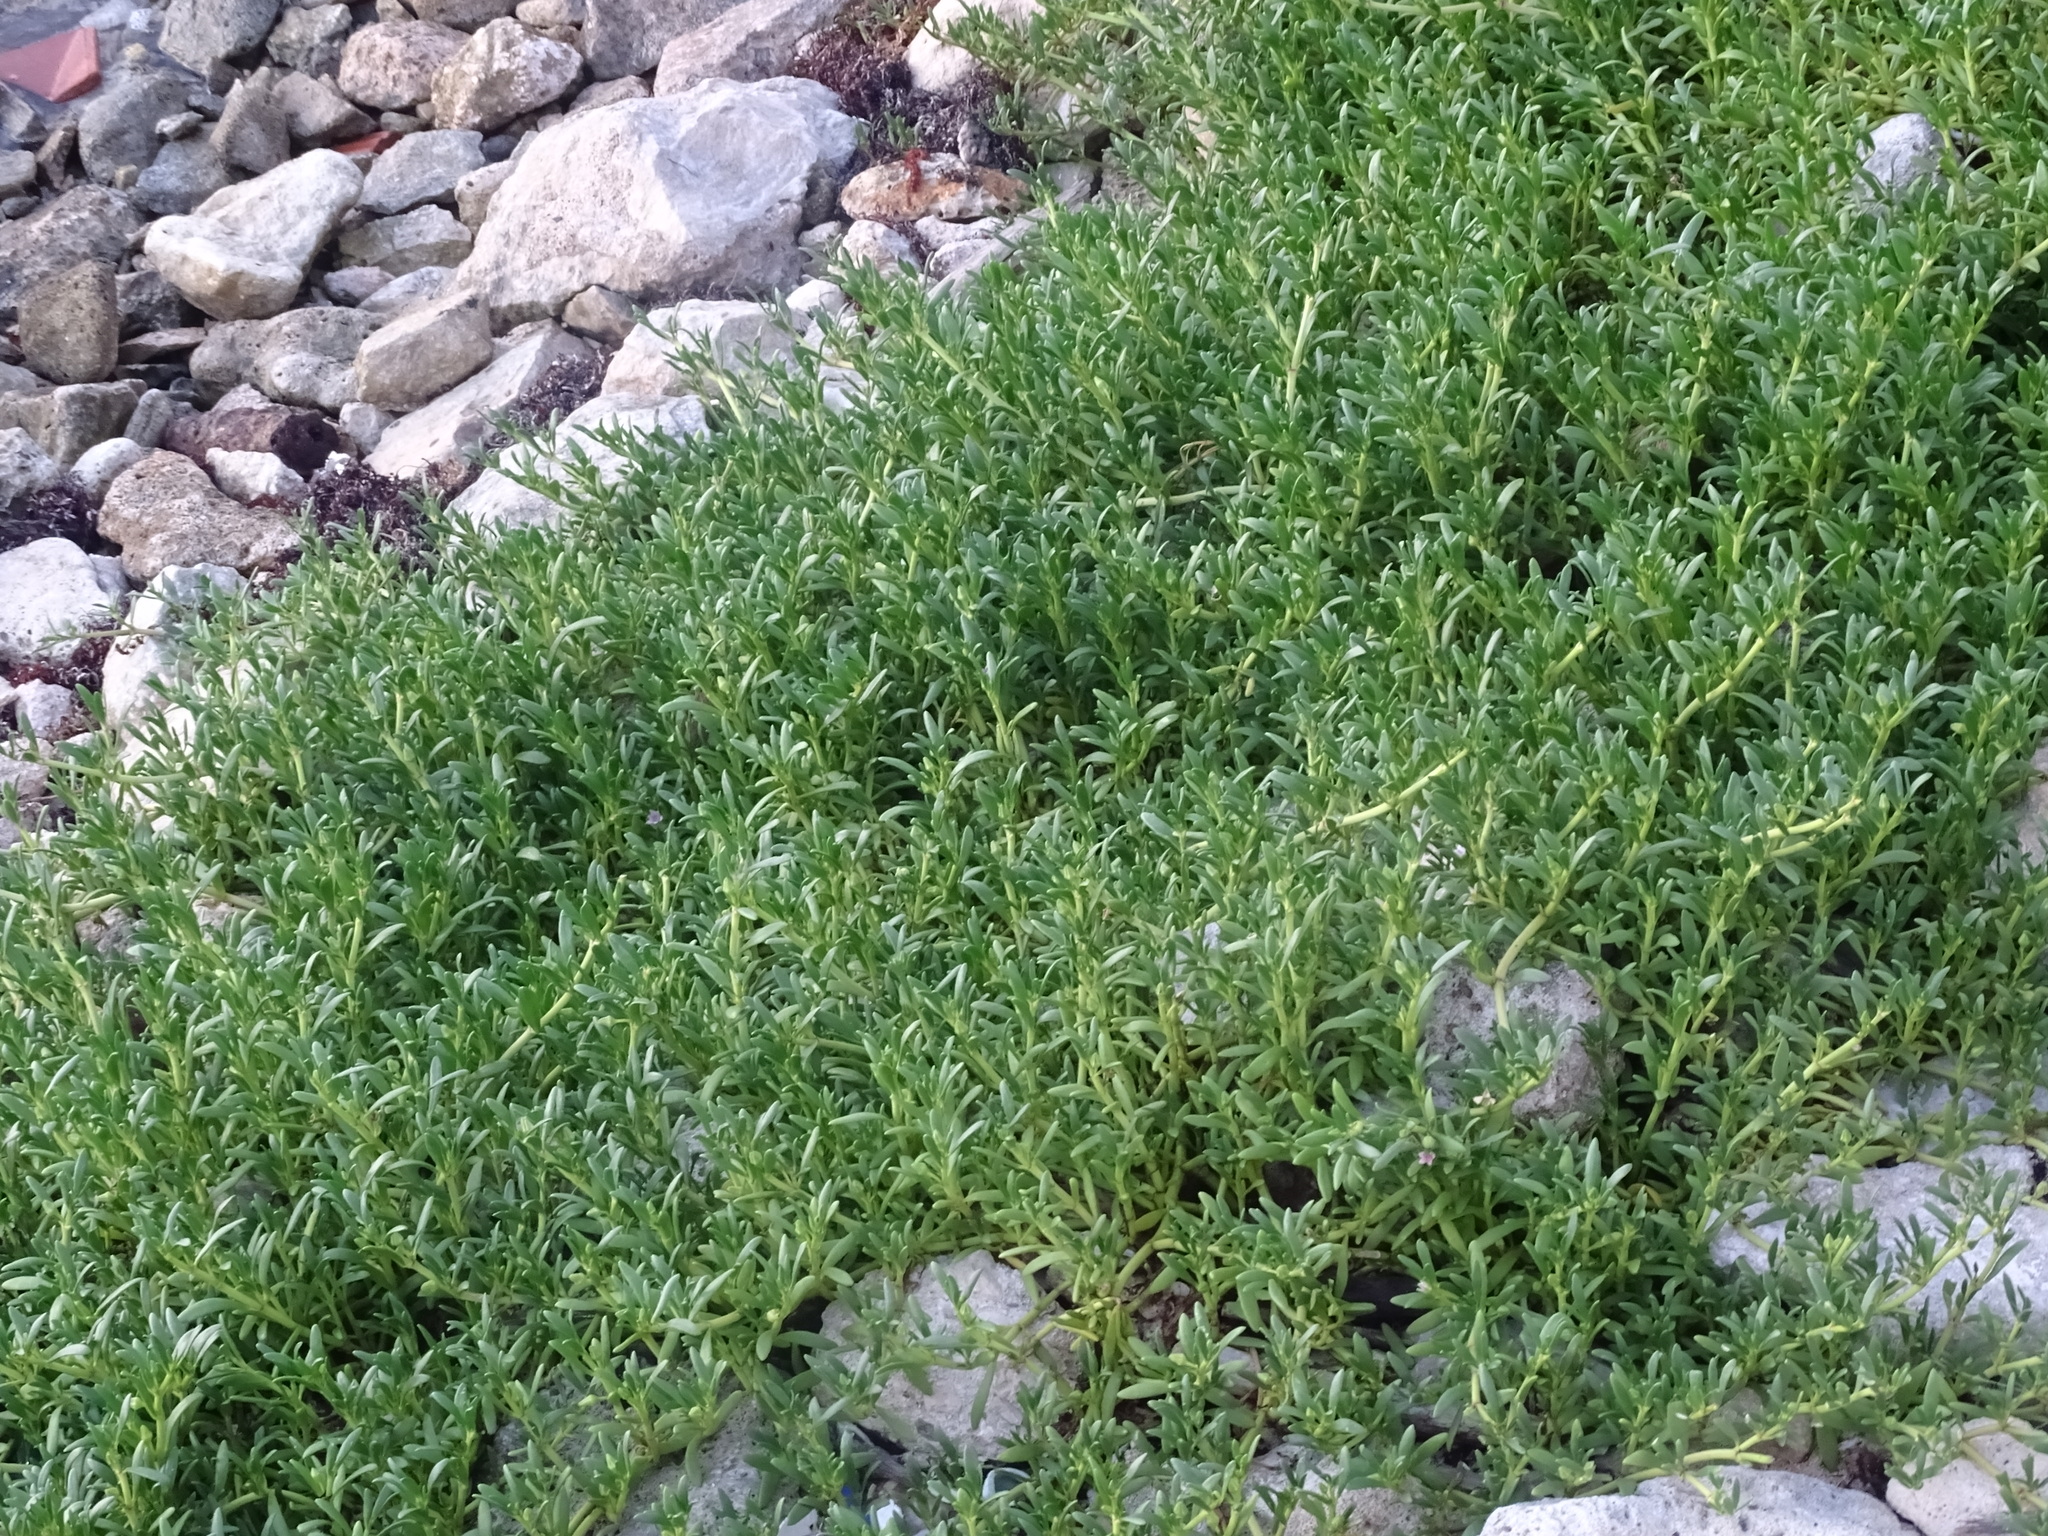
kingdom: Plantae
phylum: Tracheophyta
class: Magnoliopsida
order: Caryophyllales
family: Aizoaceae
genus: Sesuvium
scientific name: Sesuvium portulacastrum
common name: Sea-purslane
